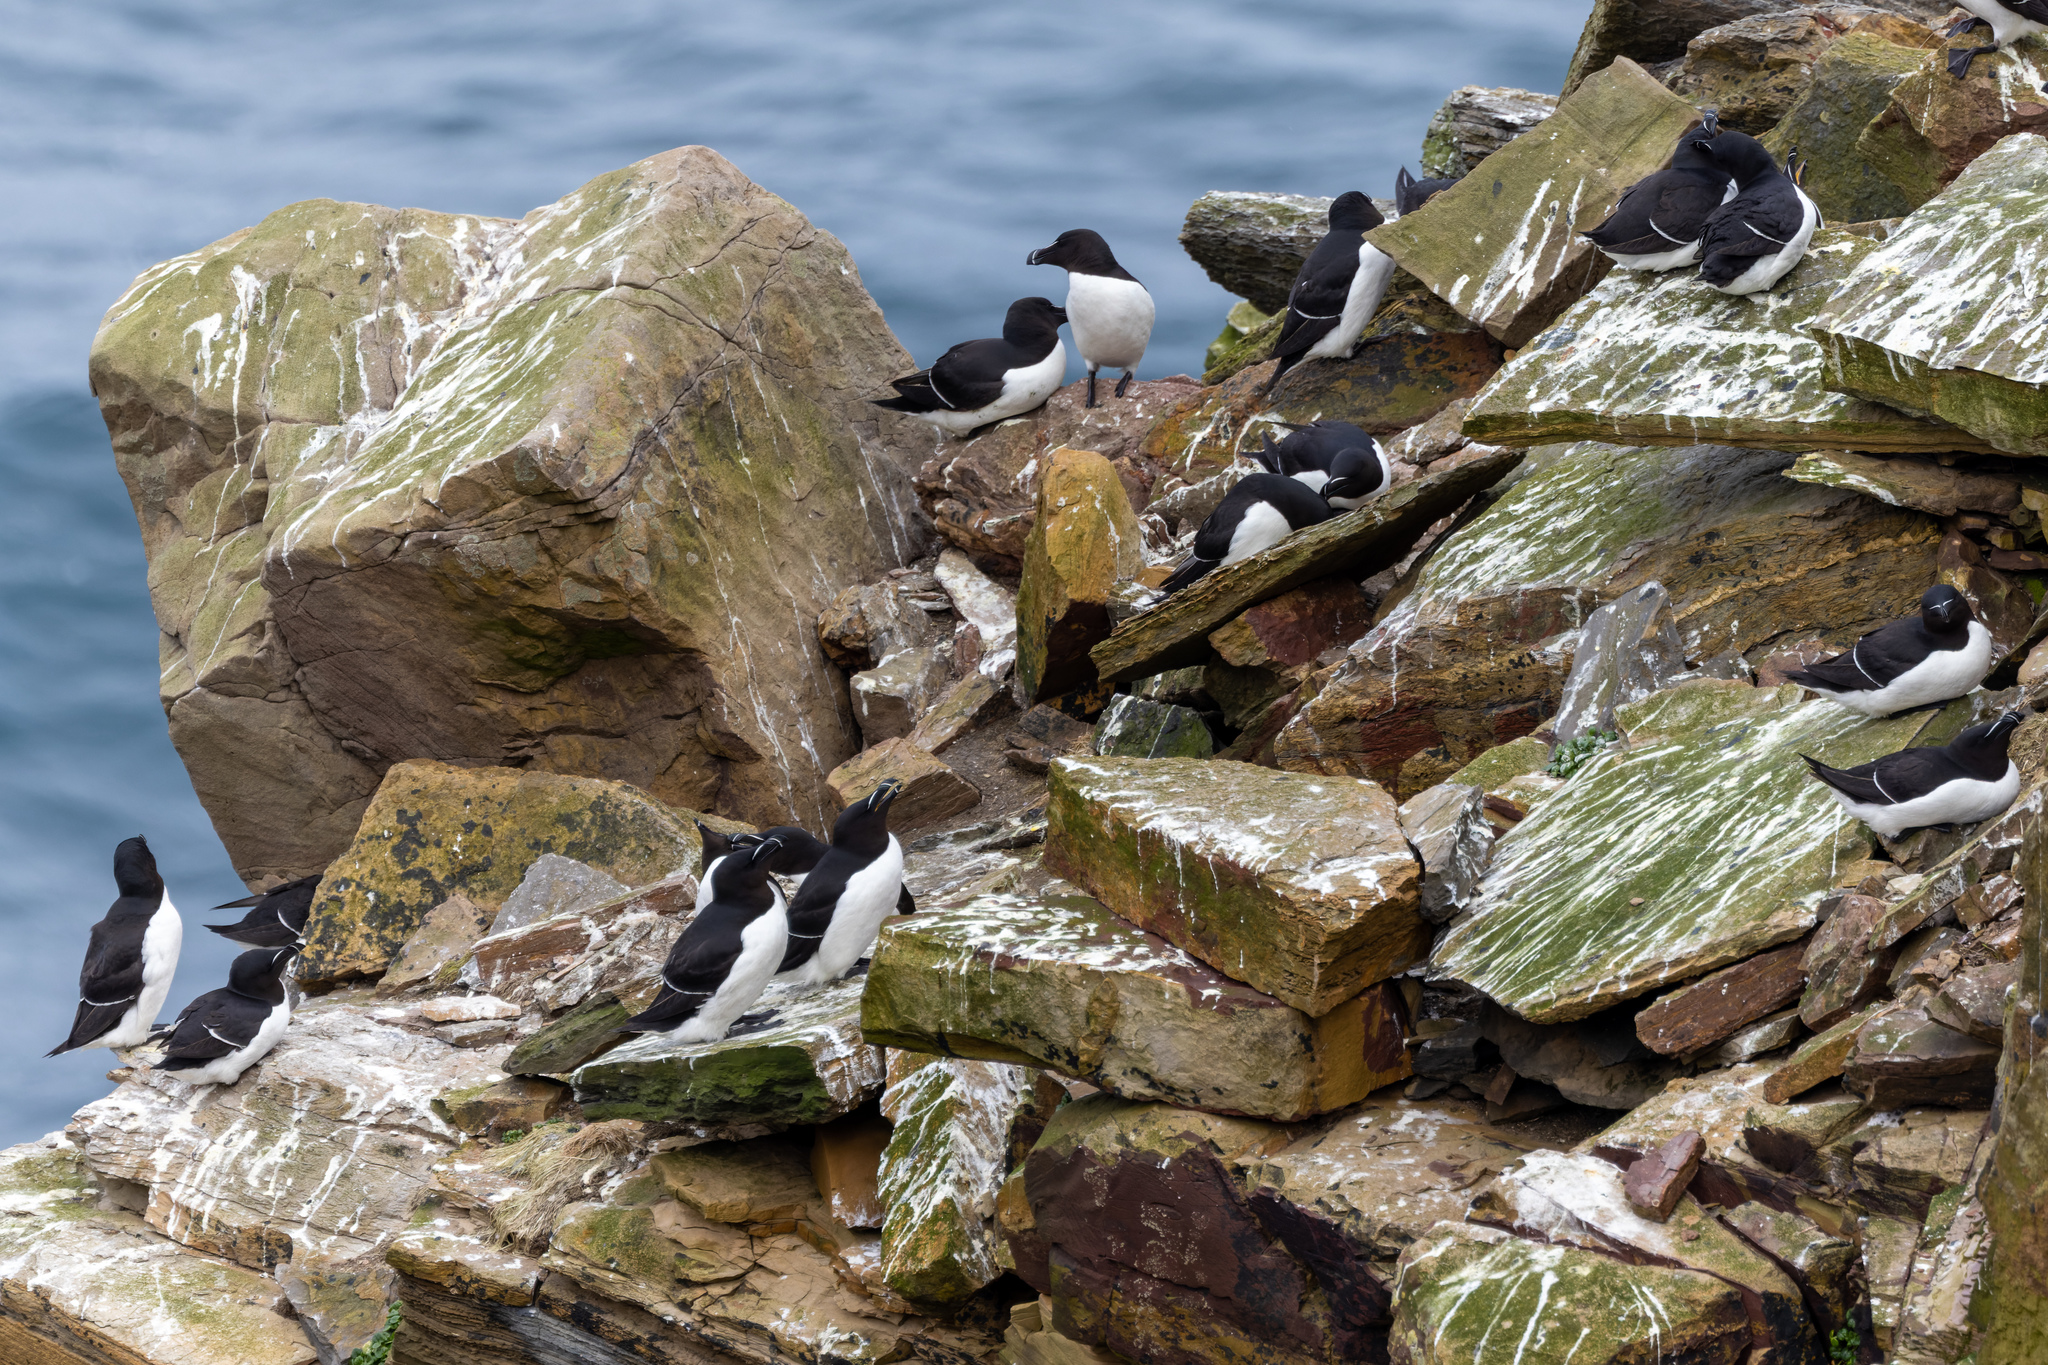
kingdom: Animalia
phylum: Chordata
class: Aves
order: Charadriiformes
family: Alcidae
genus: Alca
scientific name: Alca torda
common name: Razorbill
